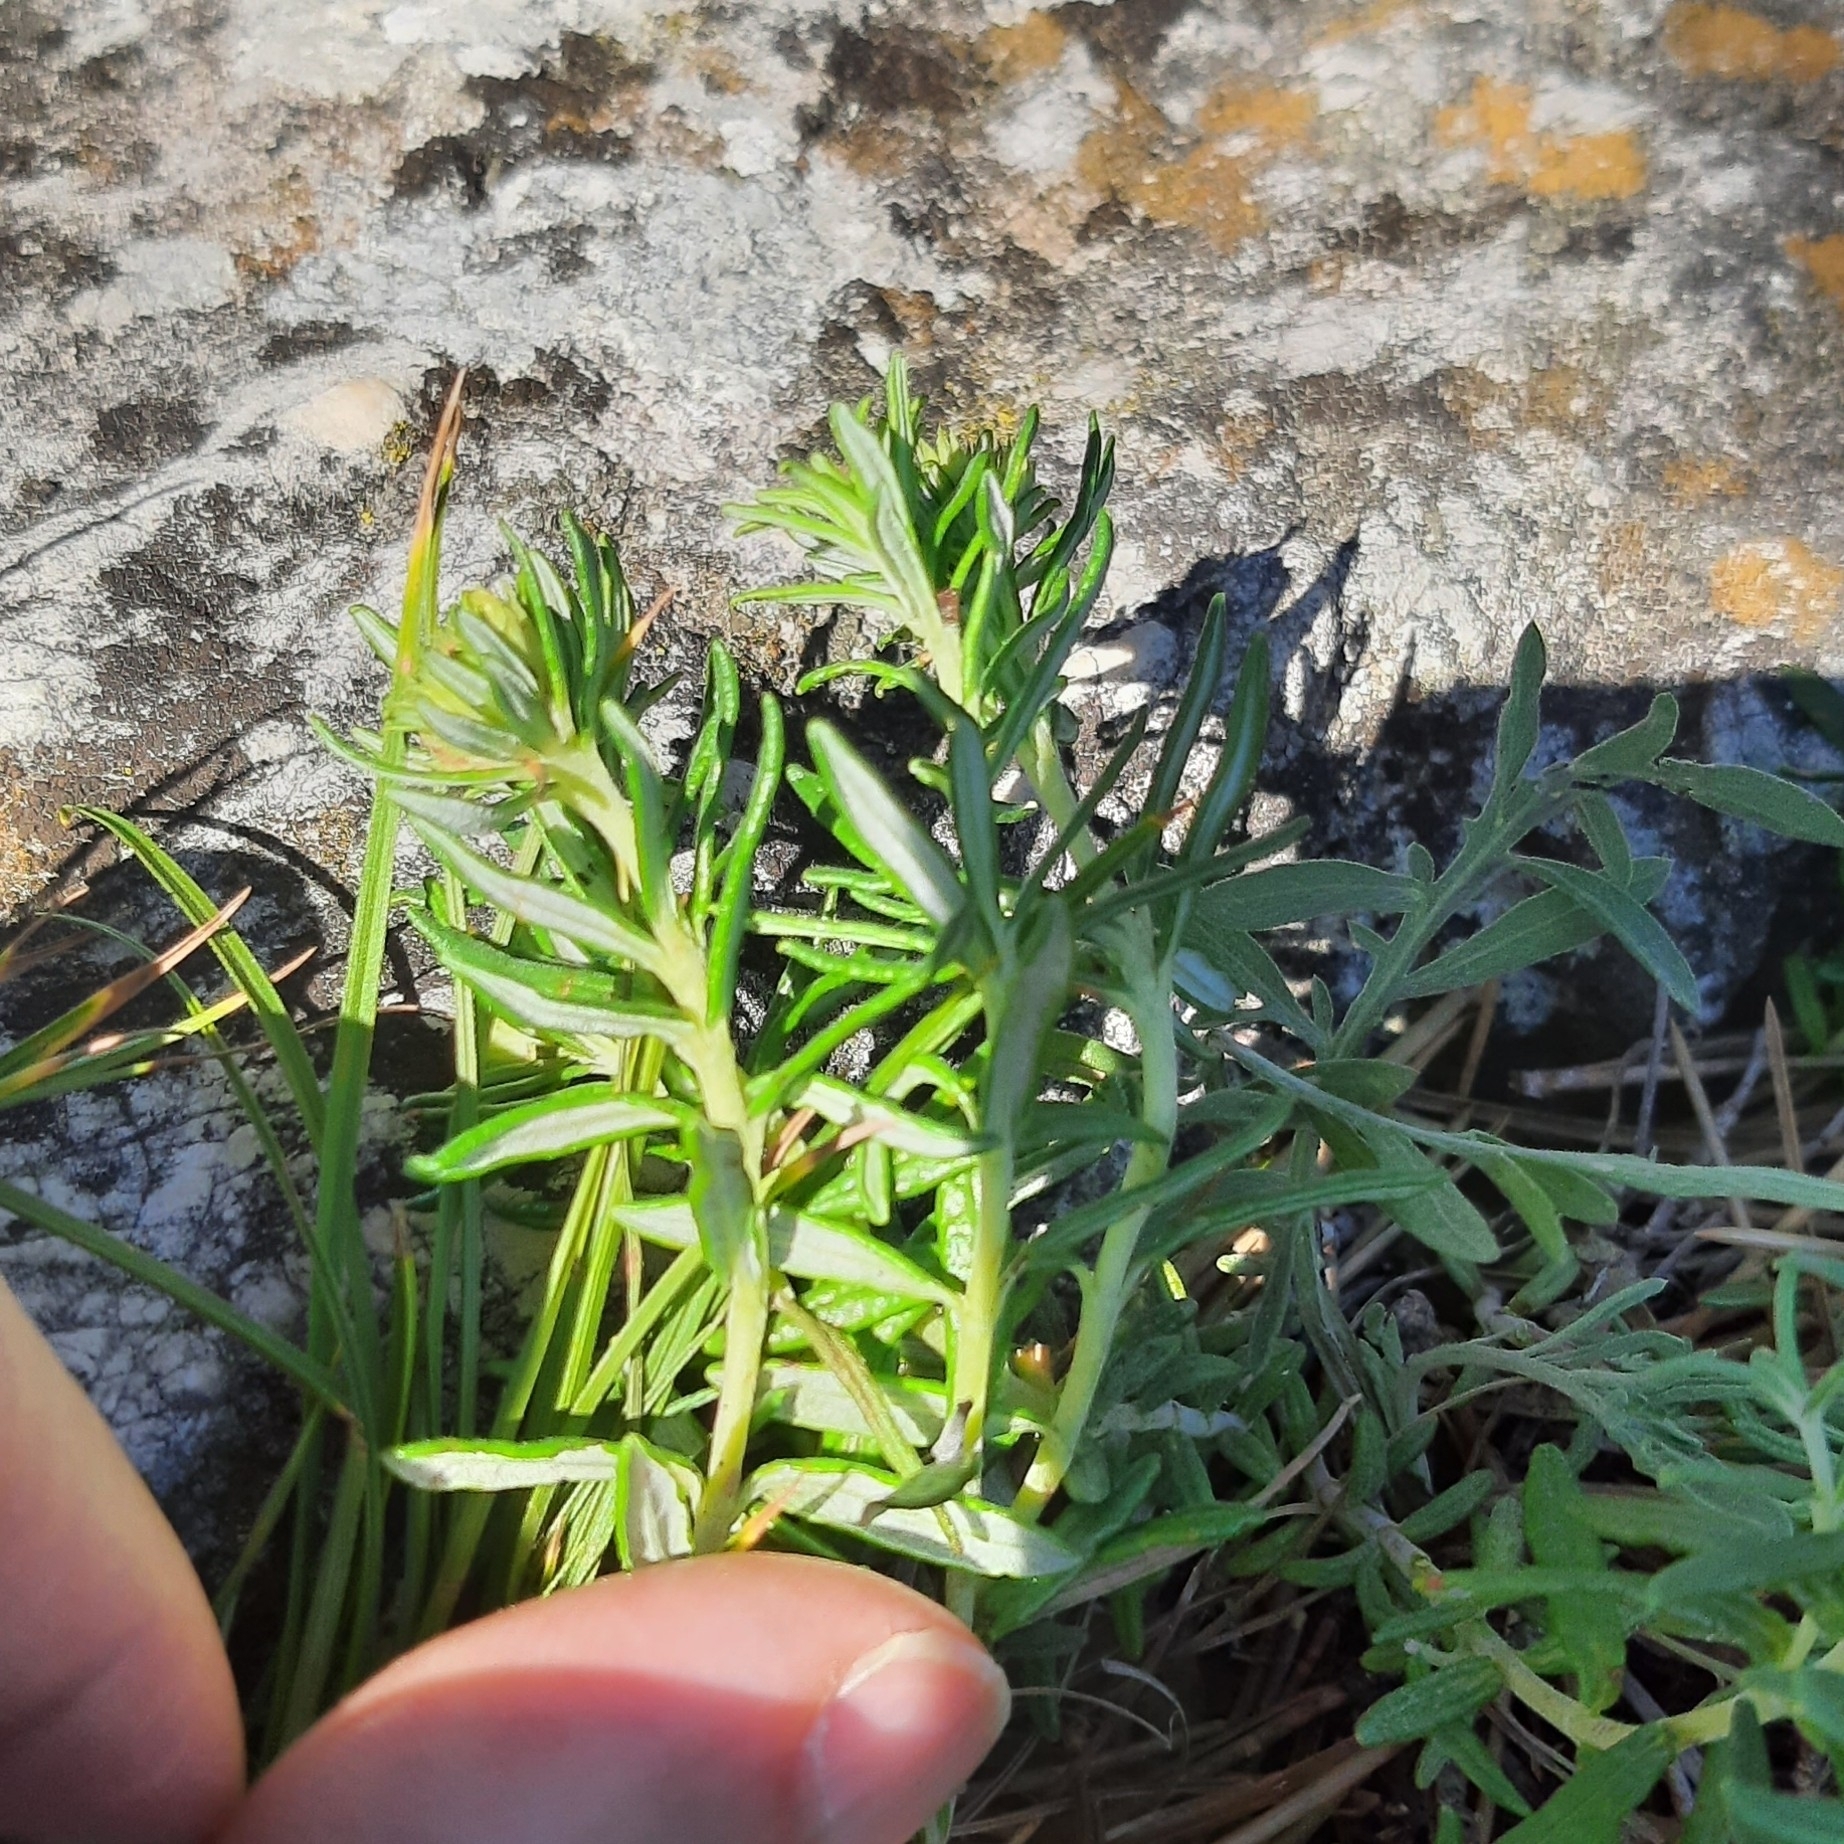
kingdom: Plantae
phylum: Tracheophyta
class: Magnoliopsida
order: Lamiales
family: Lamiaceae
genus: Teucrium
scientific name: Teucrium montanum
